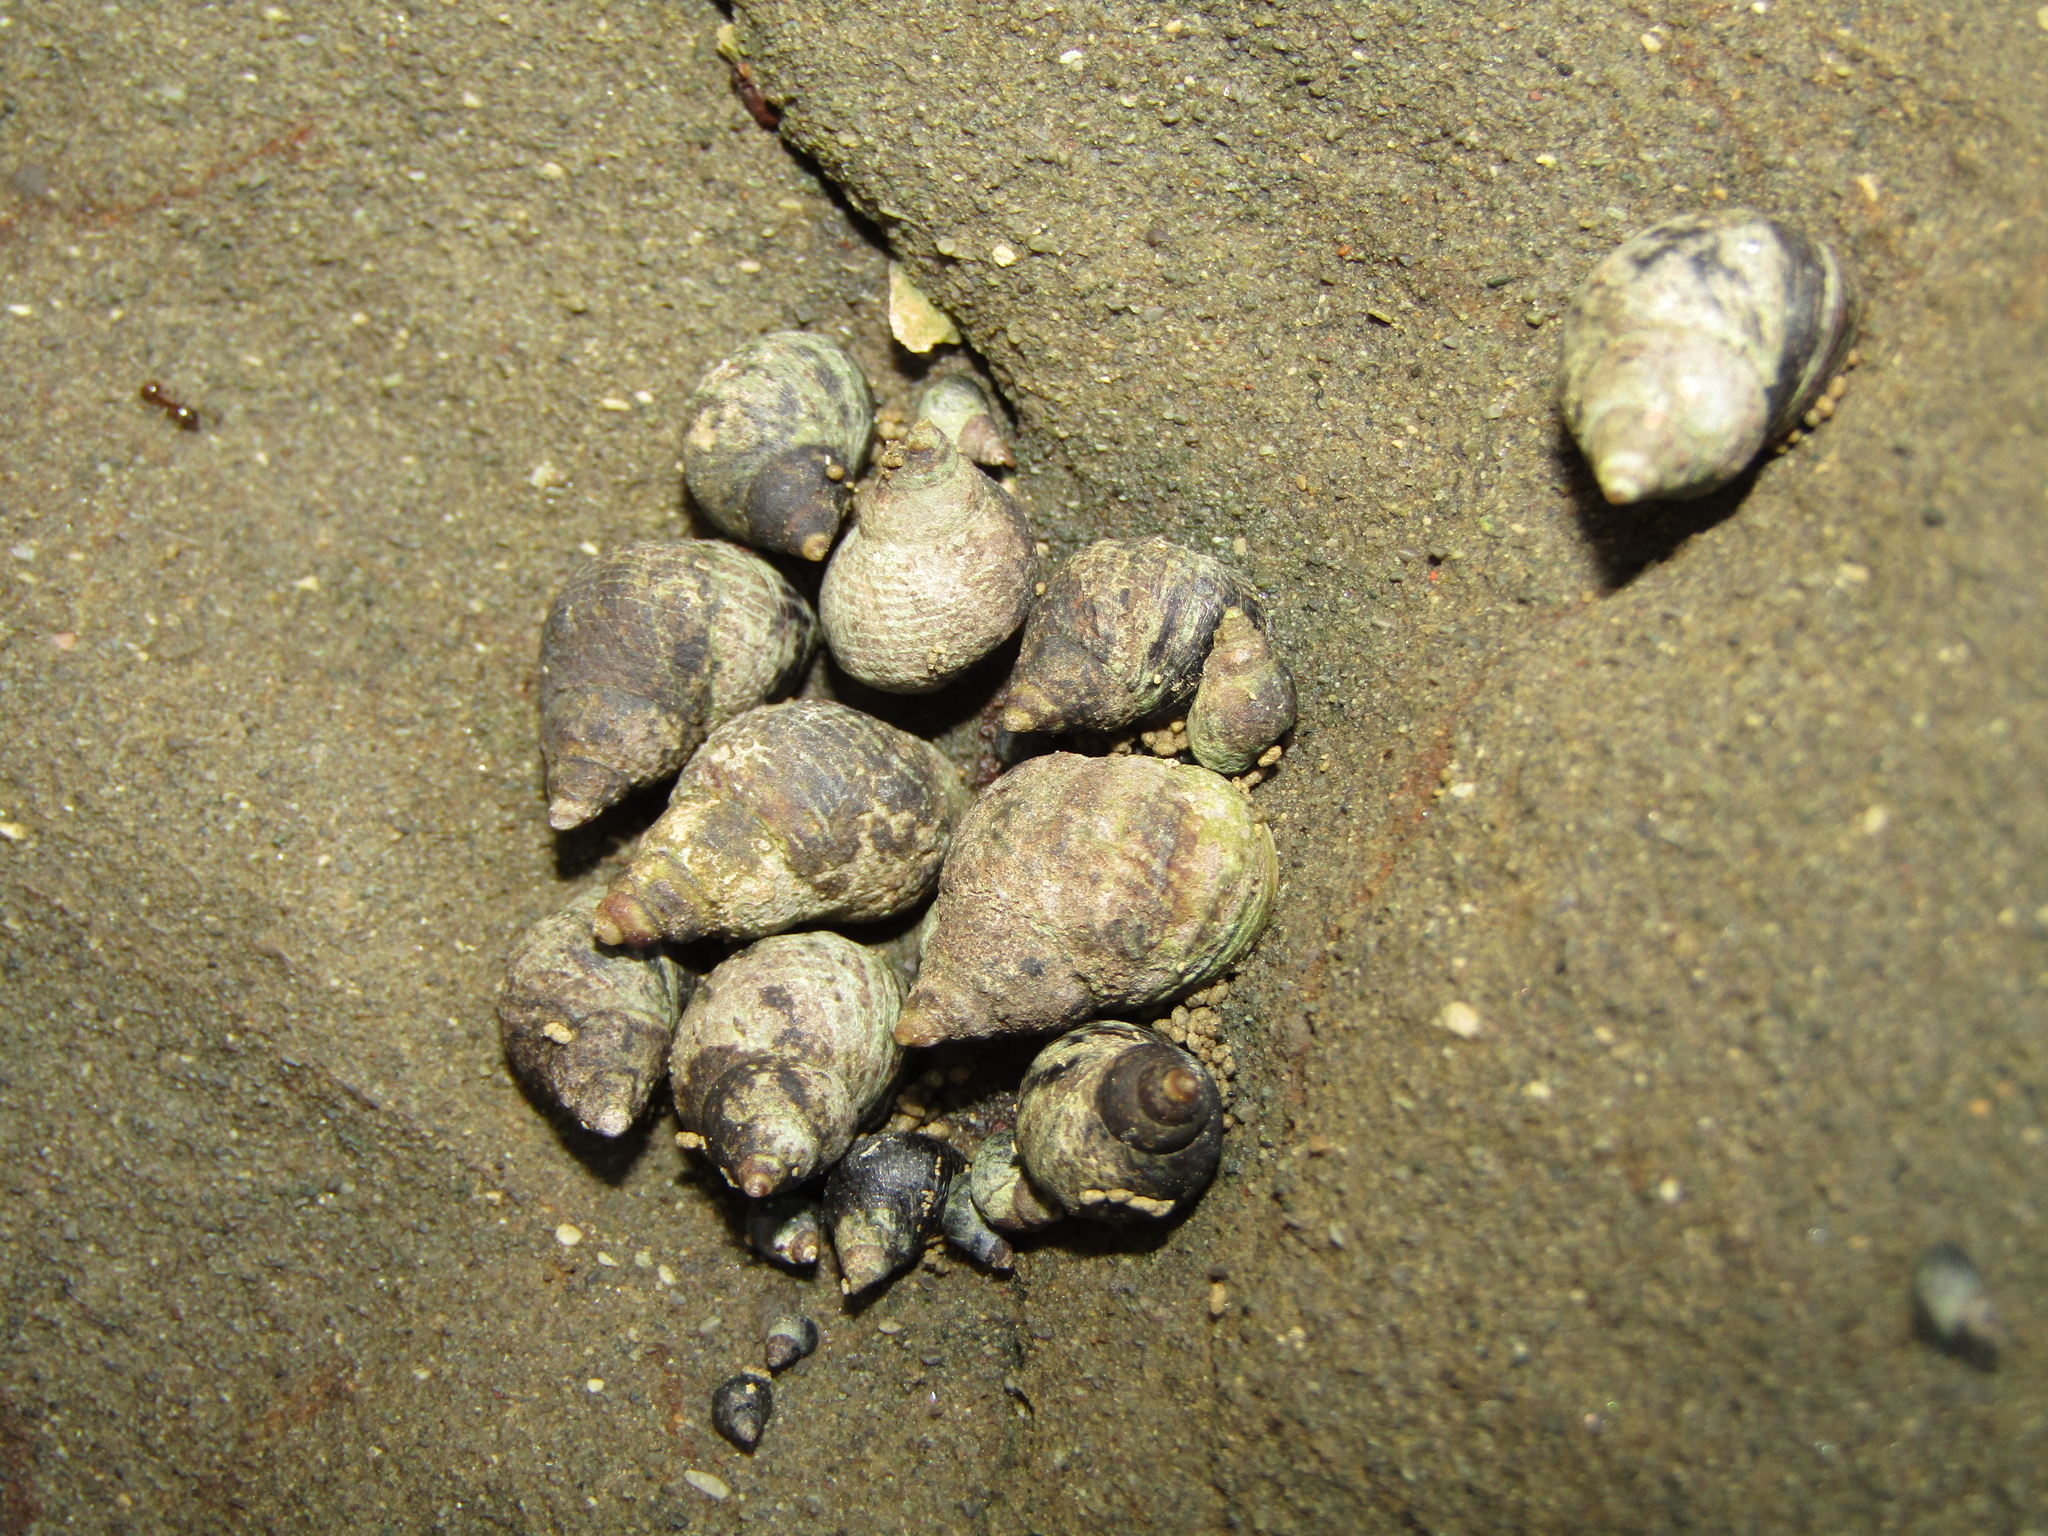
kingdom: Animalia
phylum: Mollusca
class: Gastropoda
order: Littorinimorpha
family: Littorinidae
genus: Austrolittorina
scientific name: Austrolittorina cincta
